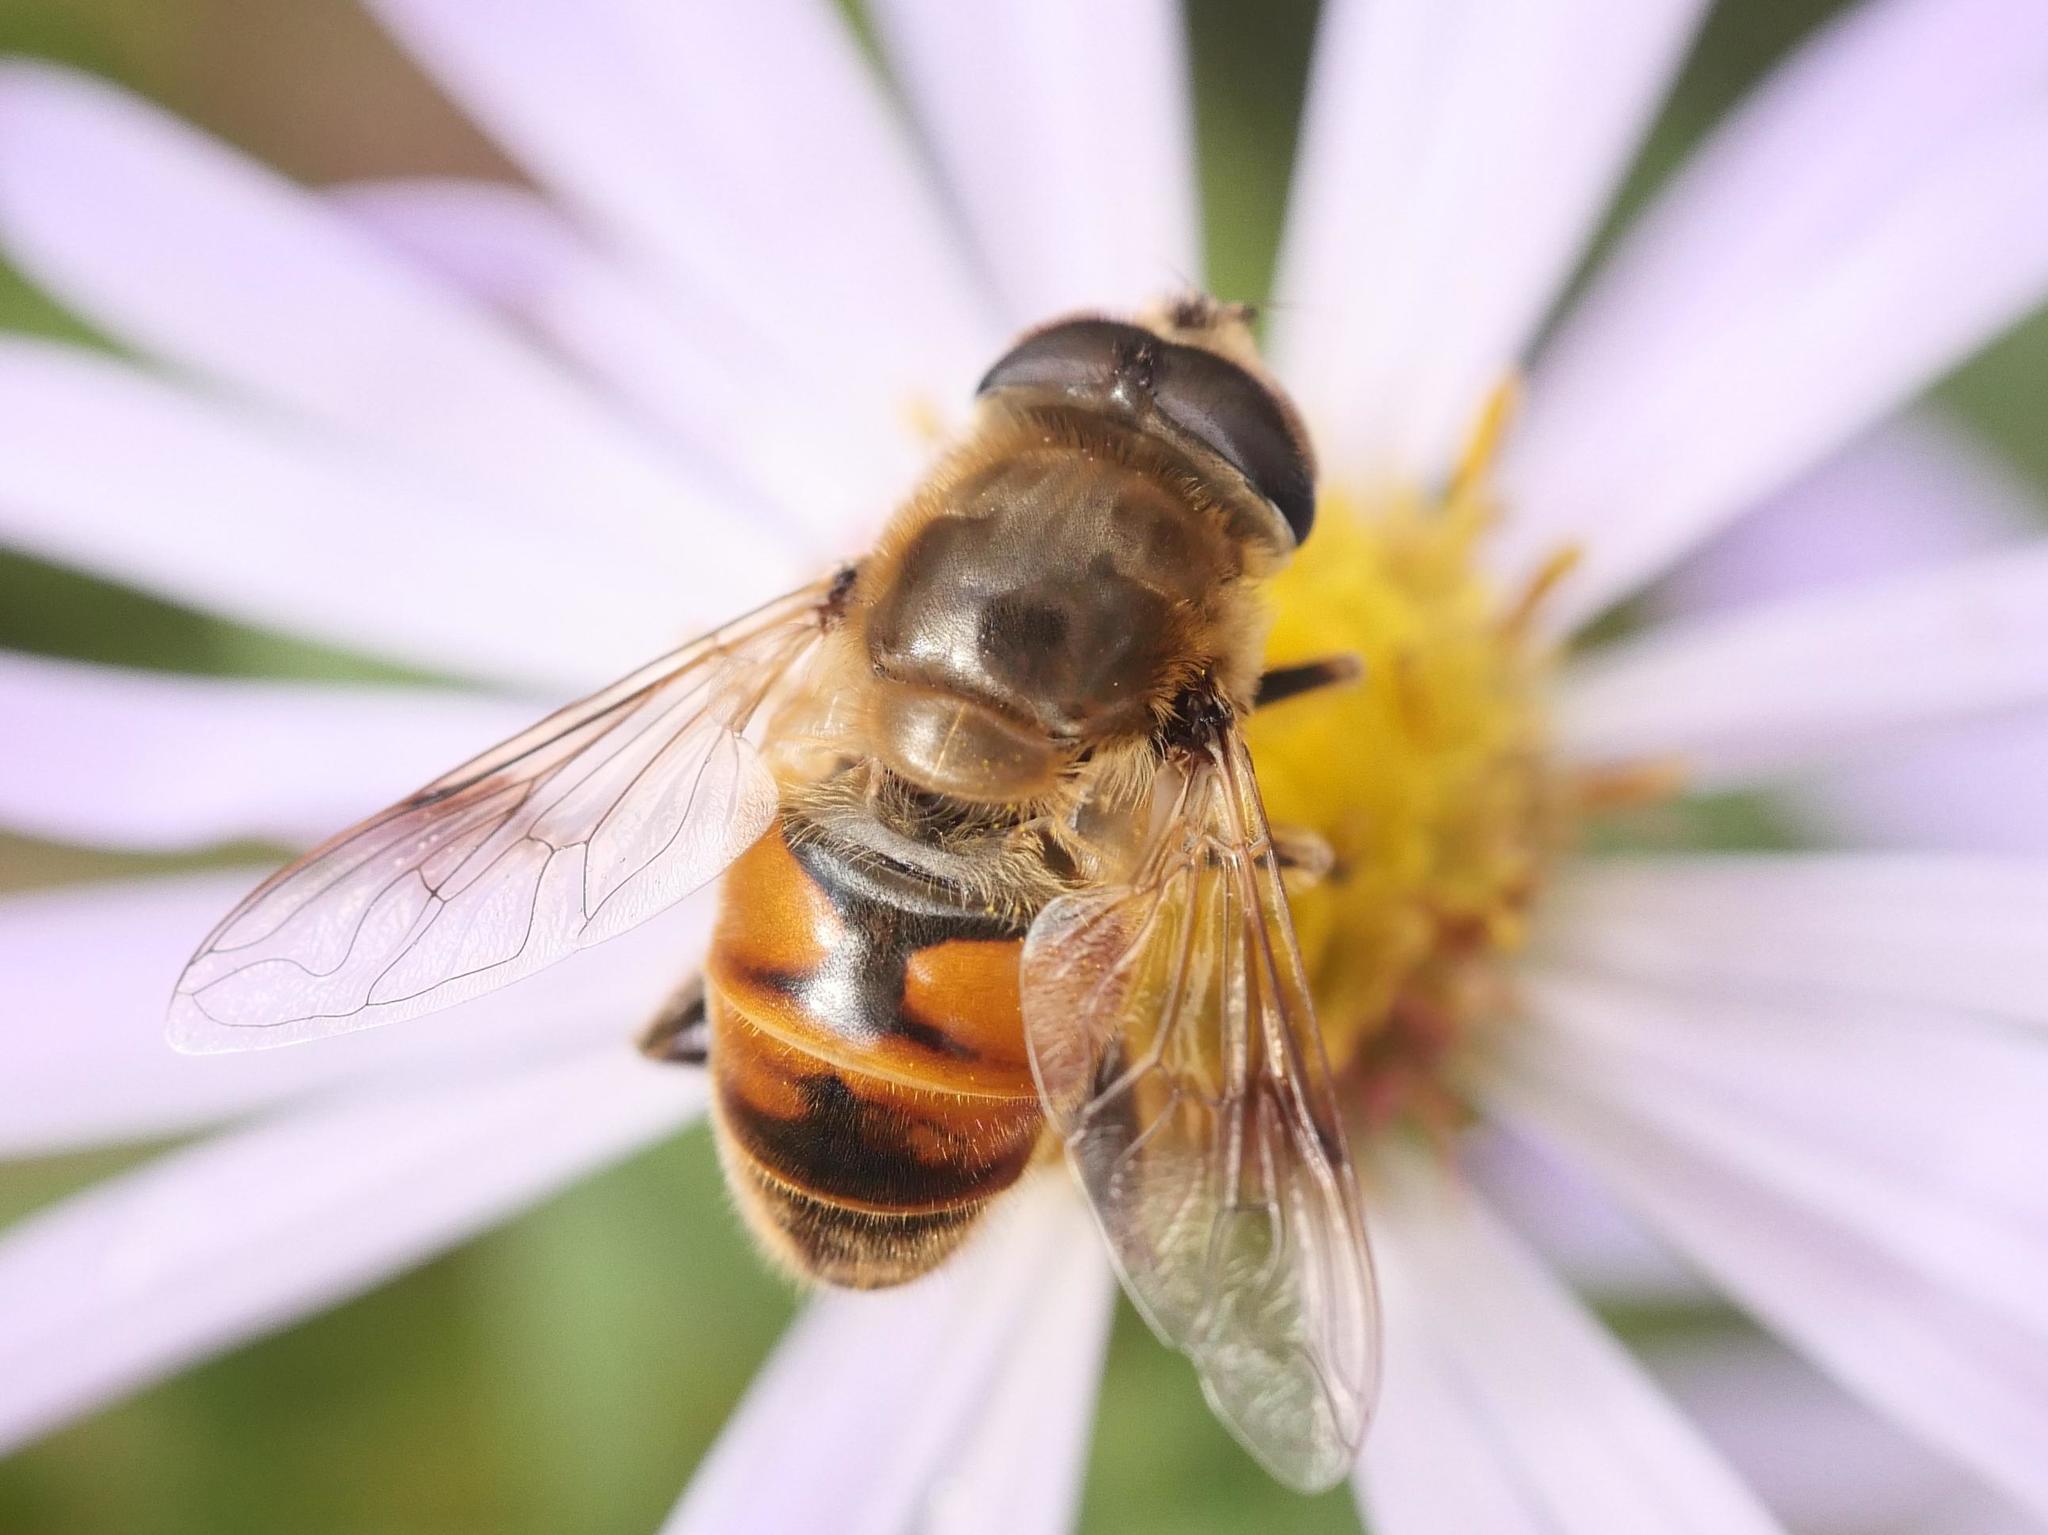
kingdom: Animalia
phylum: Arthropoda
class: Insecta
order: Diptera
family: Syrphidae
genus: Eristalis
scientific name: Eristalis tenax
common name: Drone fly
